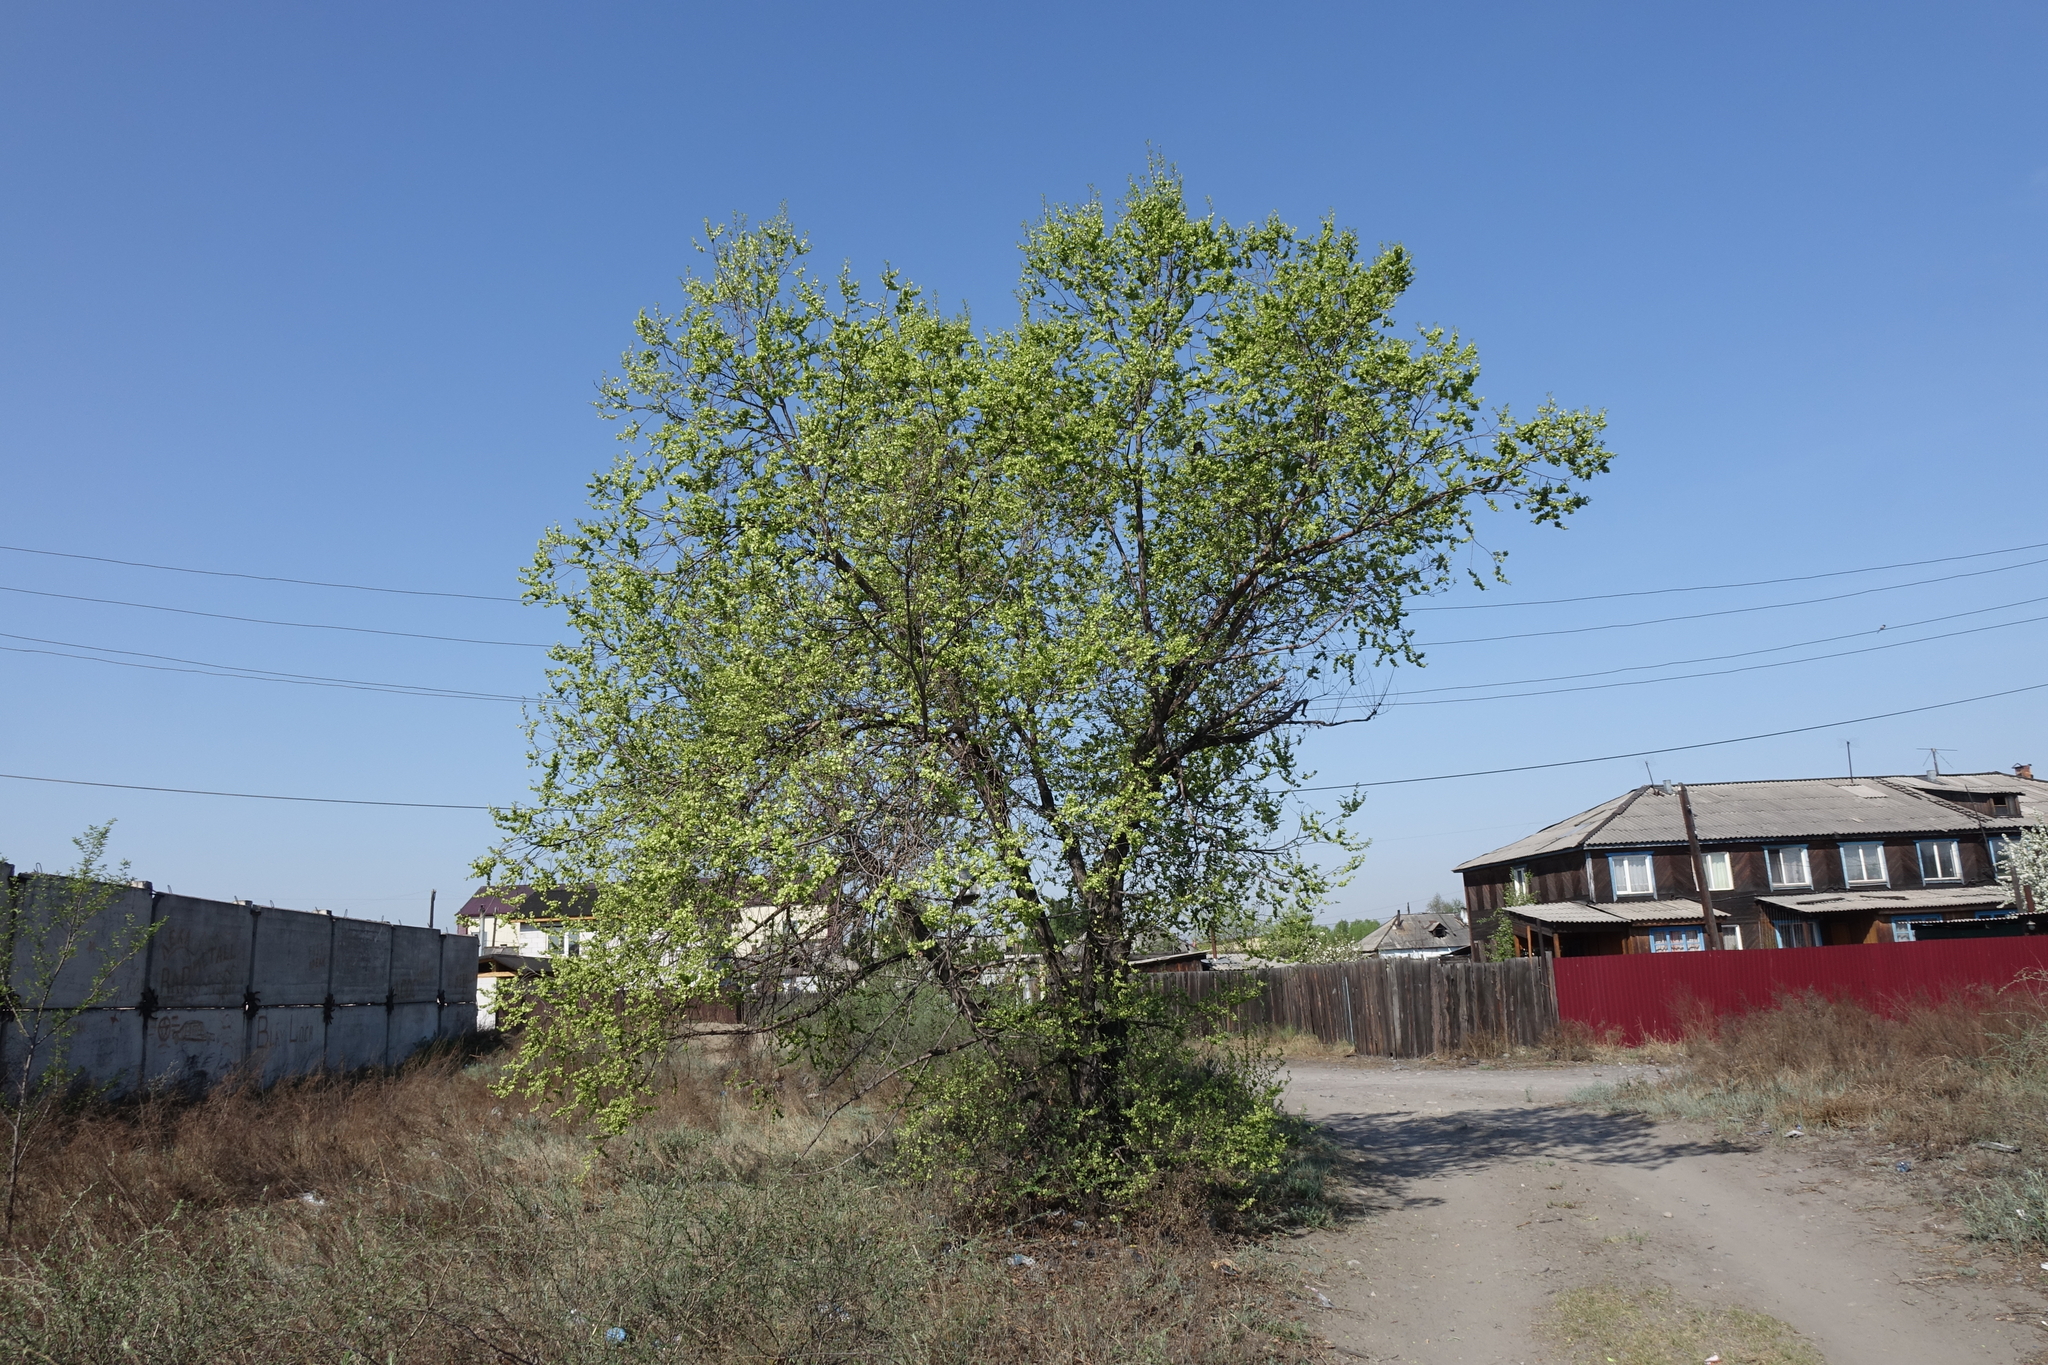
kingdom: Plantae
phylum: Tracheophyta
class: Magnoliopsida
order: Rosales
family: Ulmaceae
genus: Ulmus
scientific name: Ulmus pumila
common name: Siberian elm
